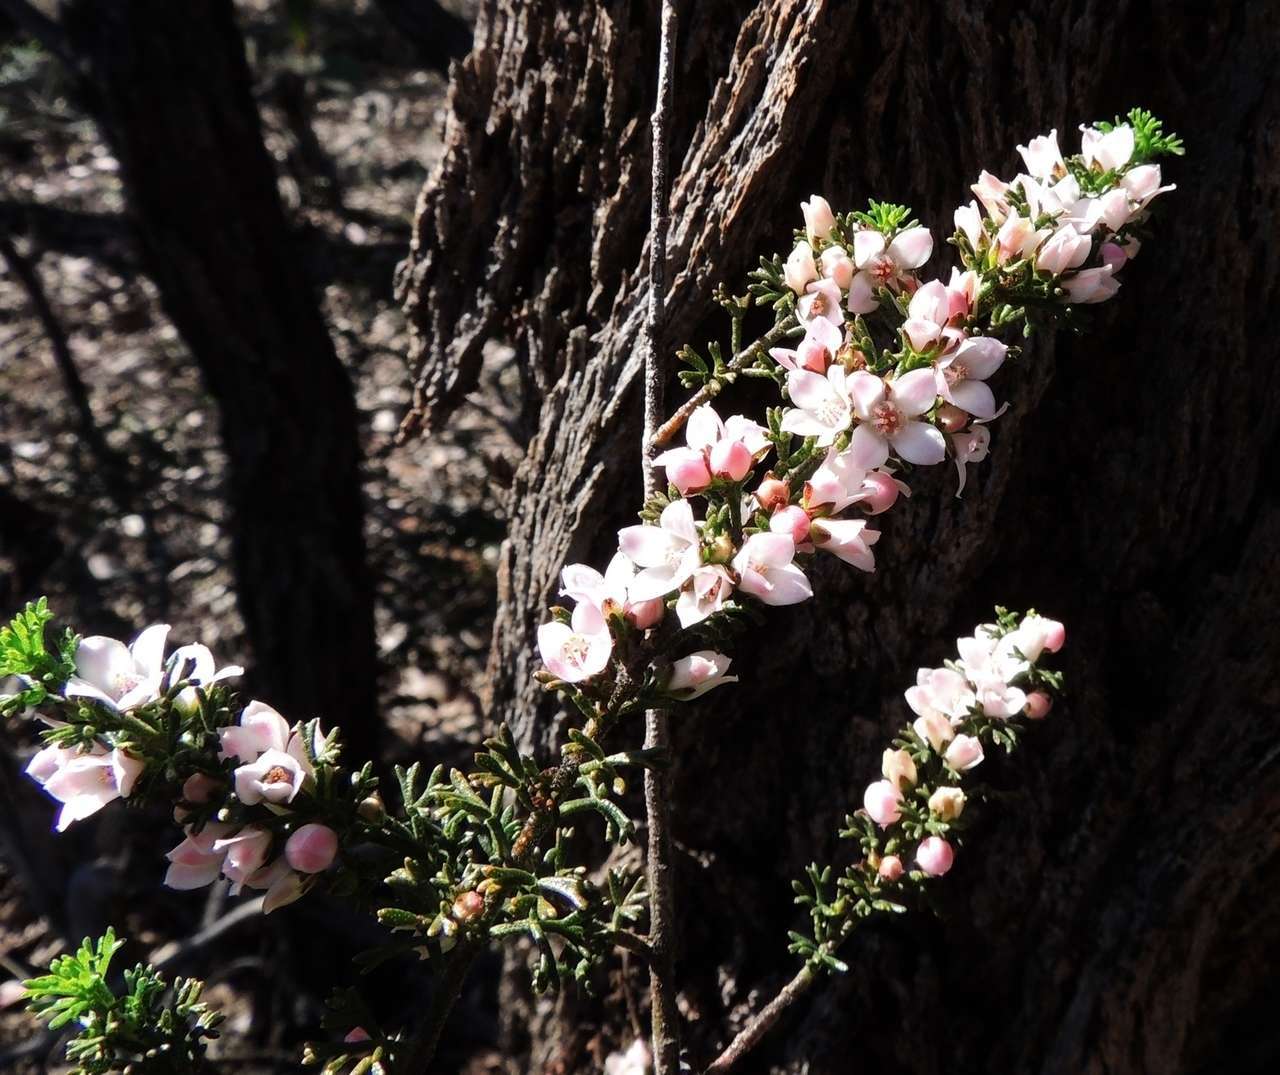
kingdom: Plantae
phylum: Tracheophyta
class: Magnoliopsida
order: Sapindales
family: Rutaceae
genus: Cyanothamnus
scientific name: Cyanothamnus anemonifolius
